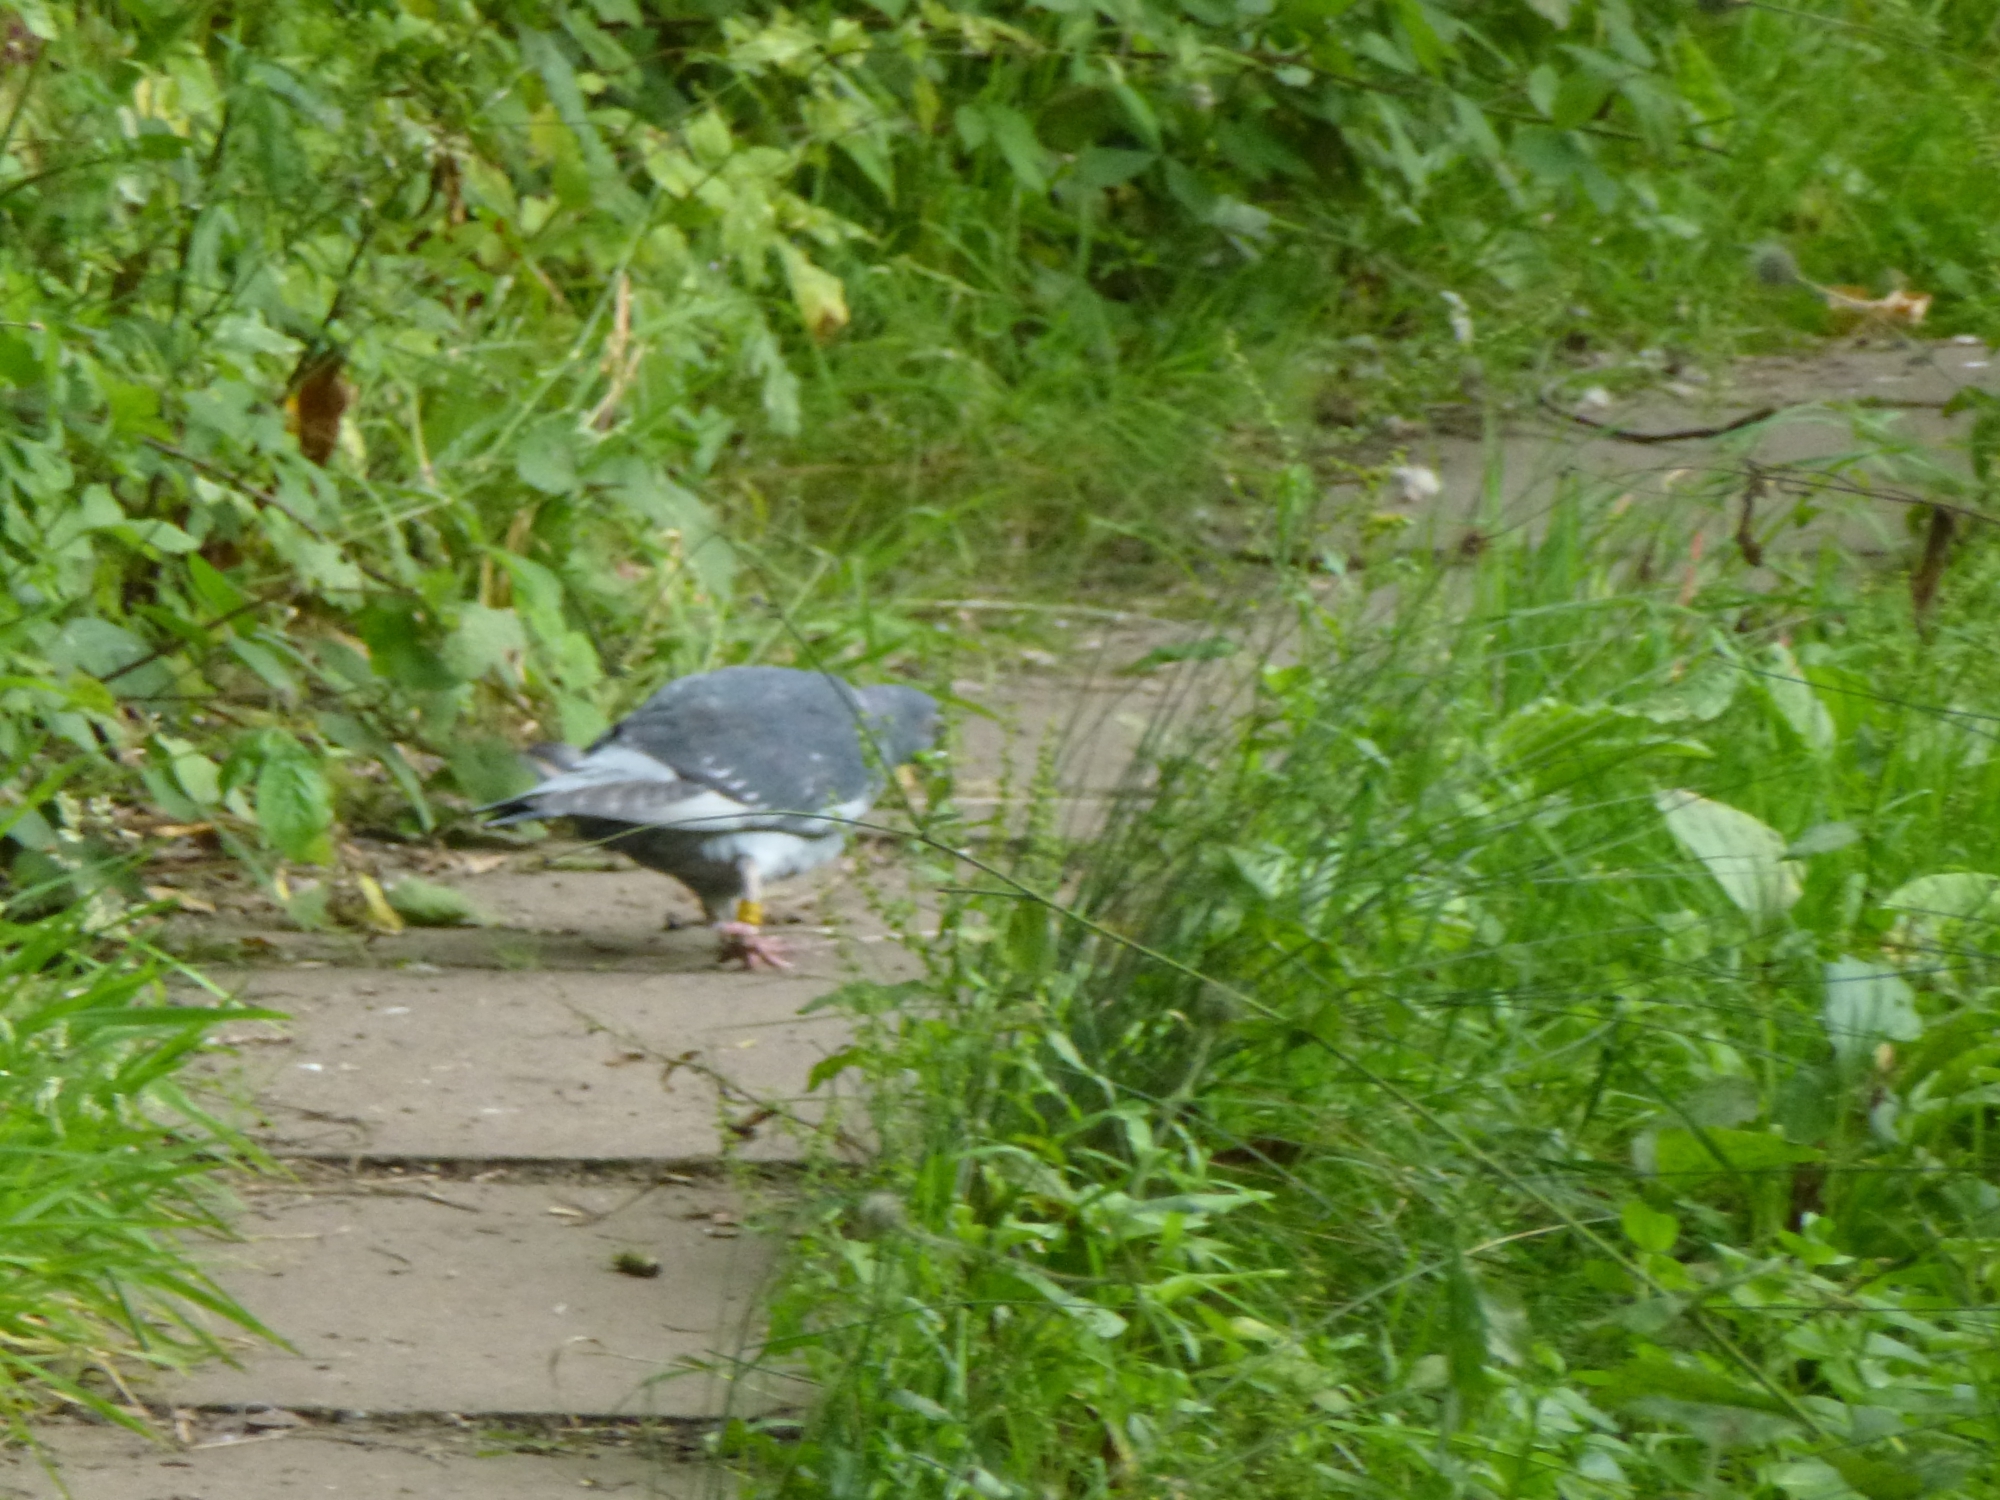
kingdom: Animalia
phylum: Chordata
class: Aves
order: Columbiformes
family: Columbidae
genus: Columba
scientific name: Columba livia
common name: Rock pigeon
